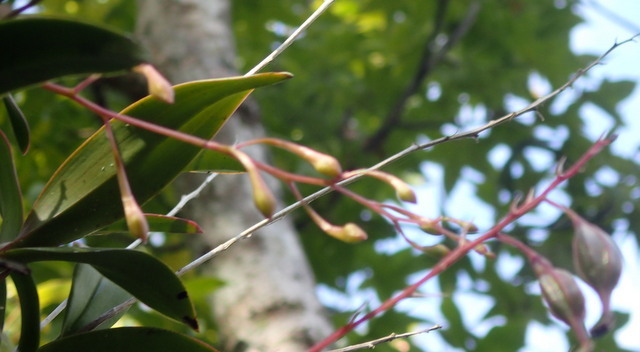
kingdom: Plantae
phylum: Tracheophyta
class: Liliopsida
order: Asparagales
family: Orchidaceae
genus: Epidendrum
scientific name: Epidendrum conopseum
